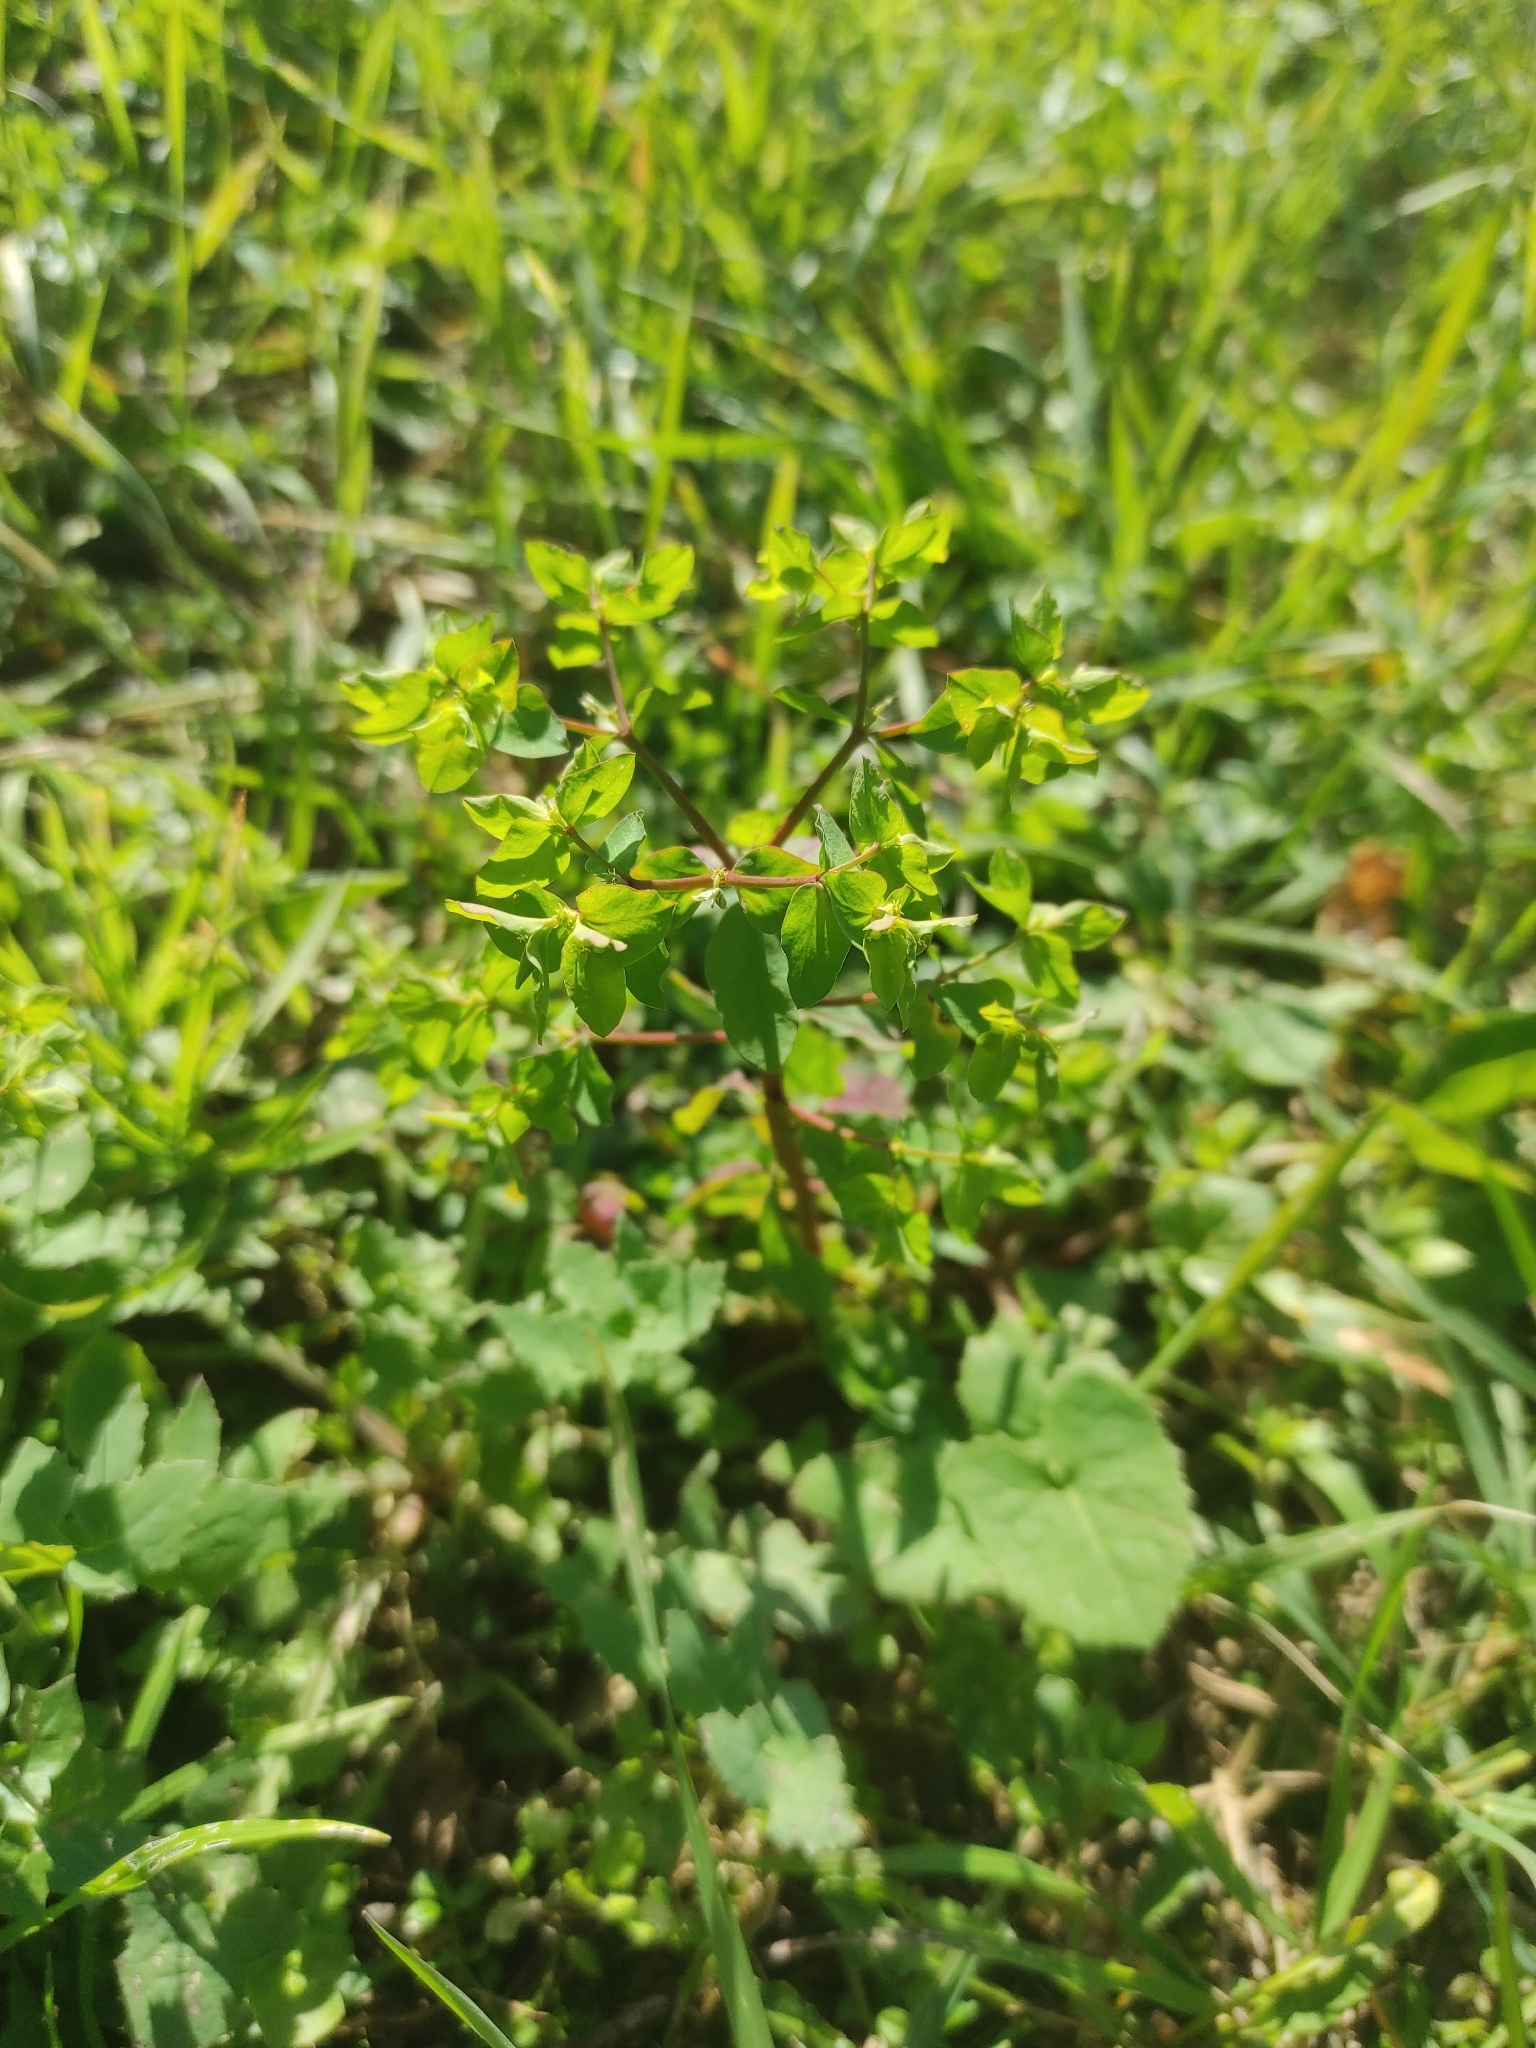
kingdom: Plantae
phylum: Tracheophyta
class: Magnoliopsida
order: Malpighiales
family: Euphorbiaceae
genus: Euphorbia
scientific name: Euphorbia peplus
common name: Petty spurge
